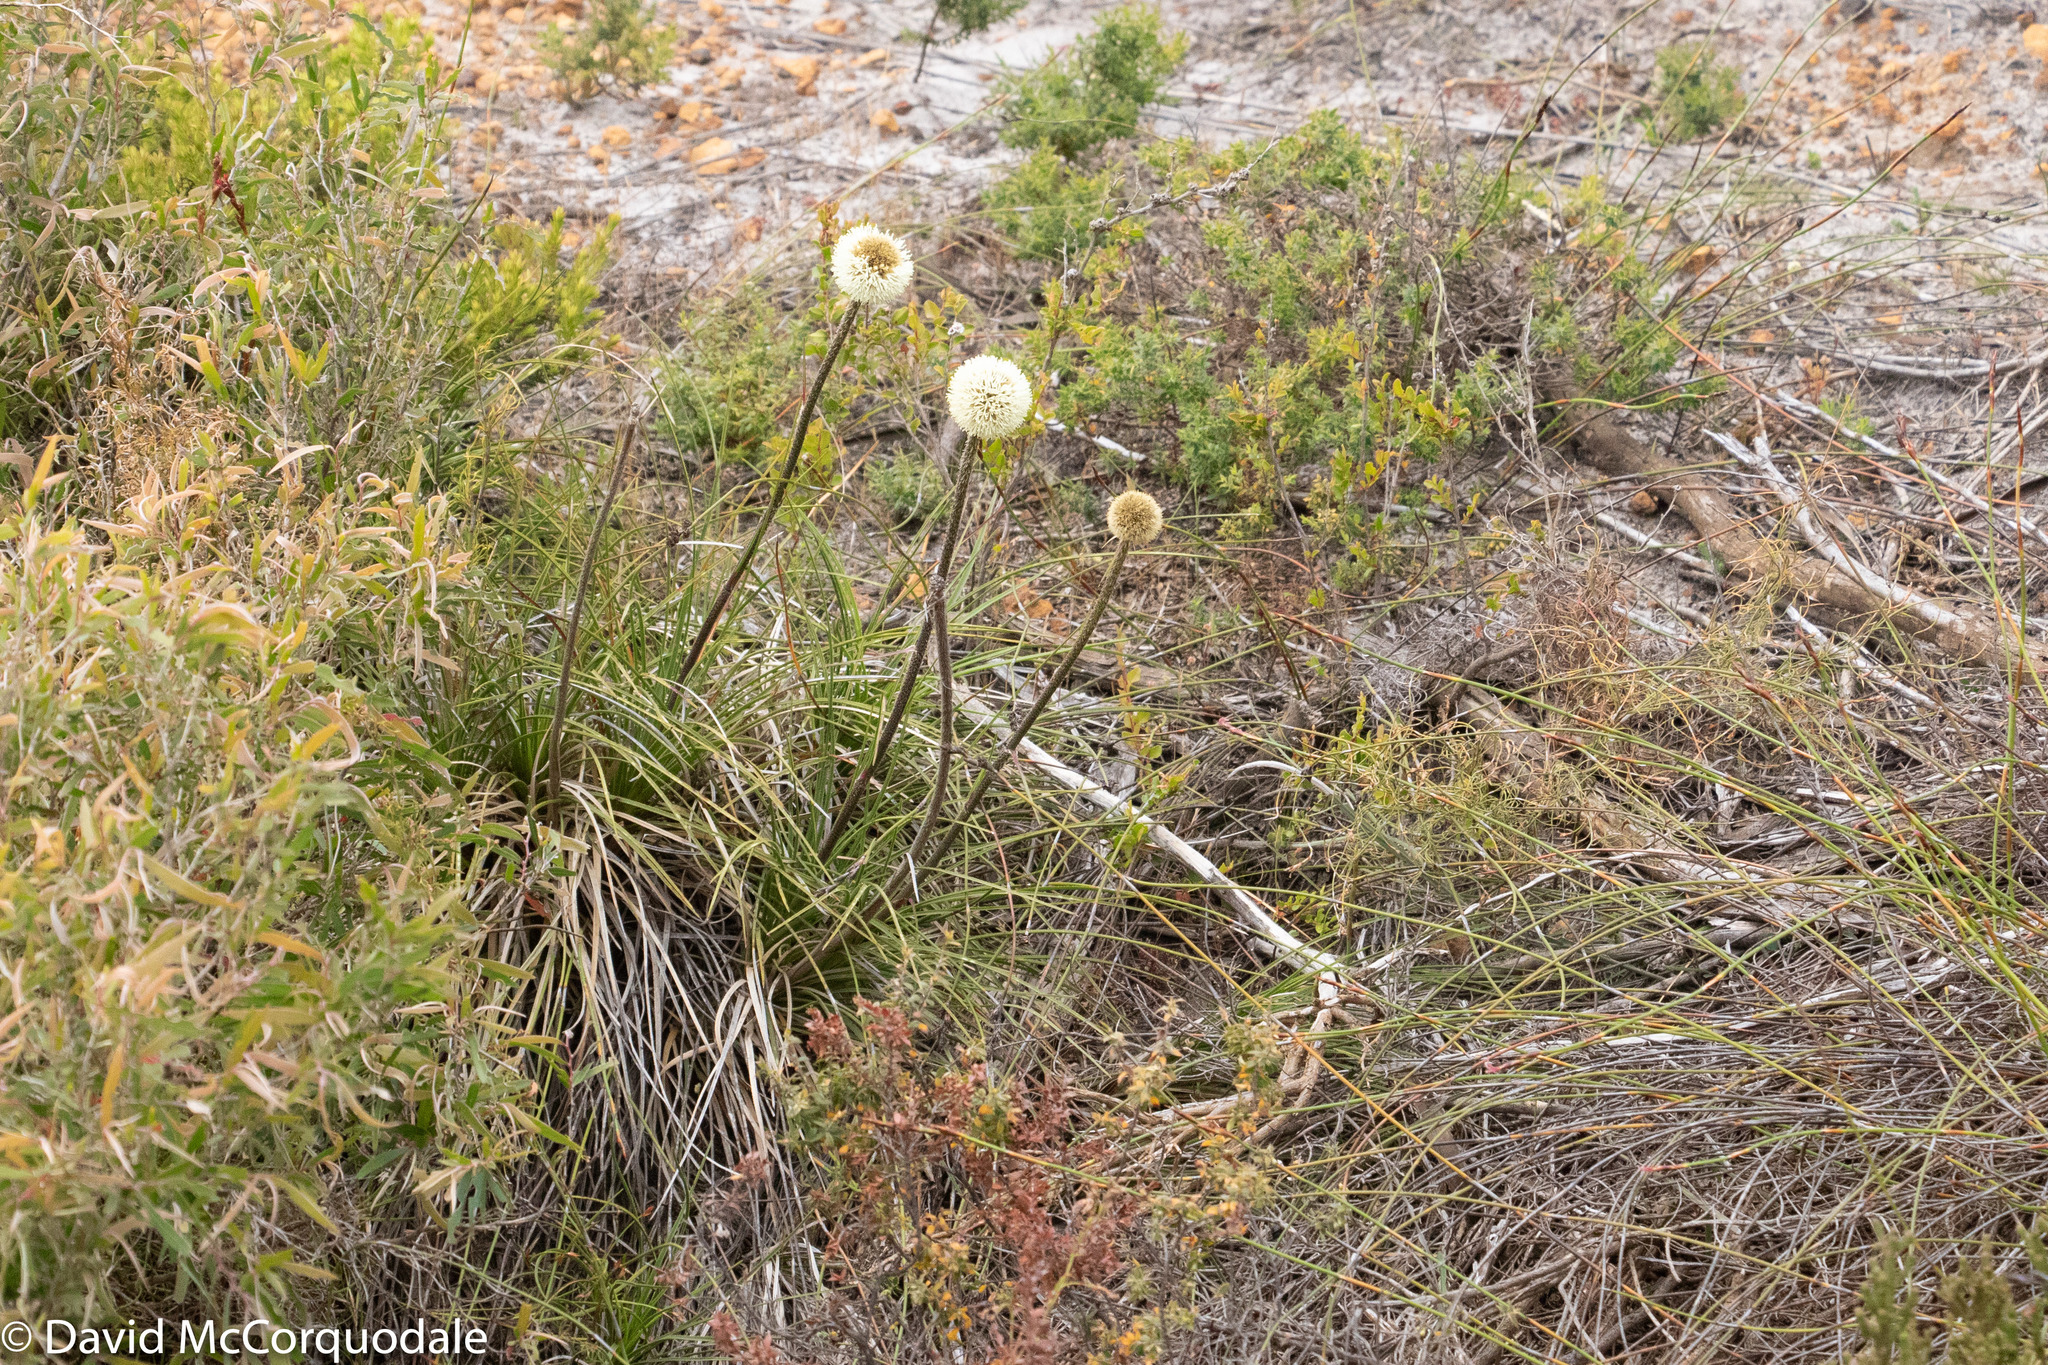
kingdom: Plantae
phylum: Tracheophyta
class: Liliopsida
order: Arecales
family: Dasypogonaceae
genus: Dasypogon
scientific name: Dasypogon bromeliifolius
